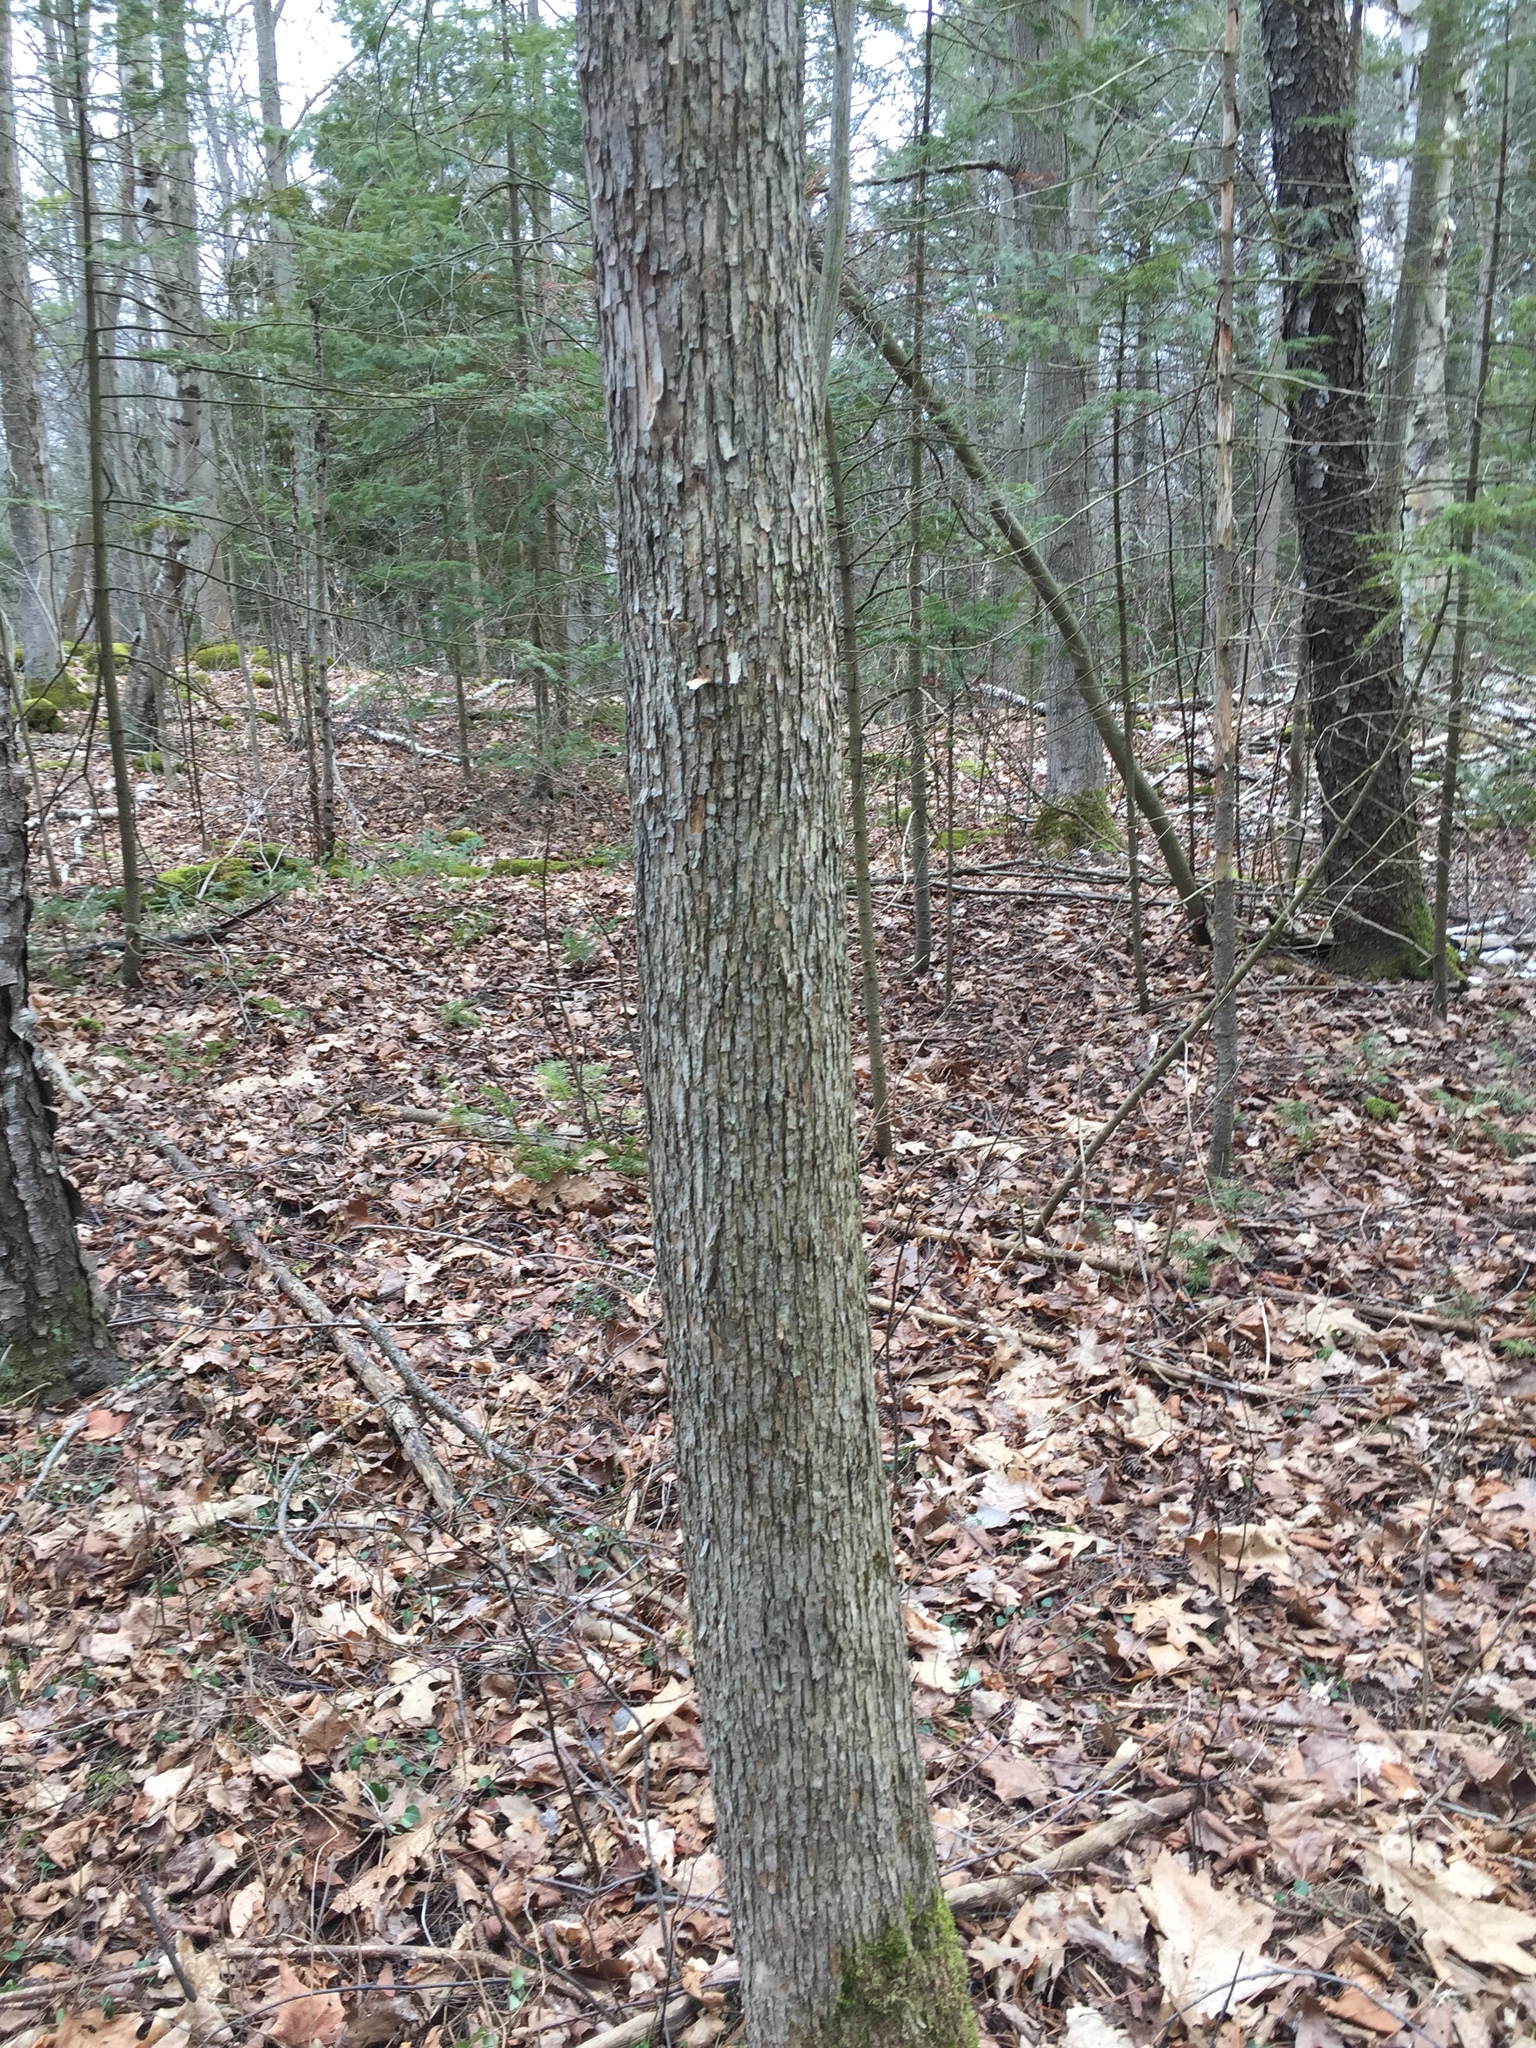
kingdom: Plantae
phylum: Tracheophyta
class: Magnoliopsida
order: Fagales
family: Betulaceae
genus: Ostrya
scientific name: Ostrya virginiana
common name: Ironwood
